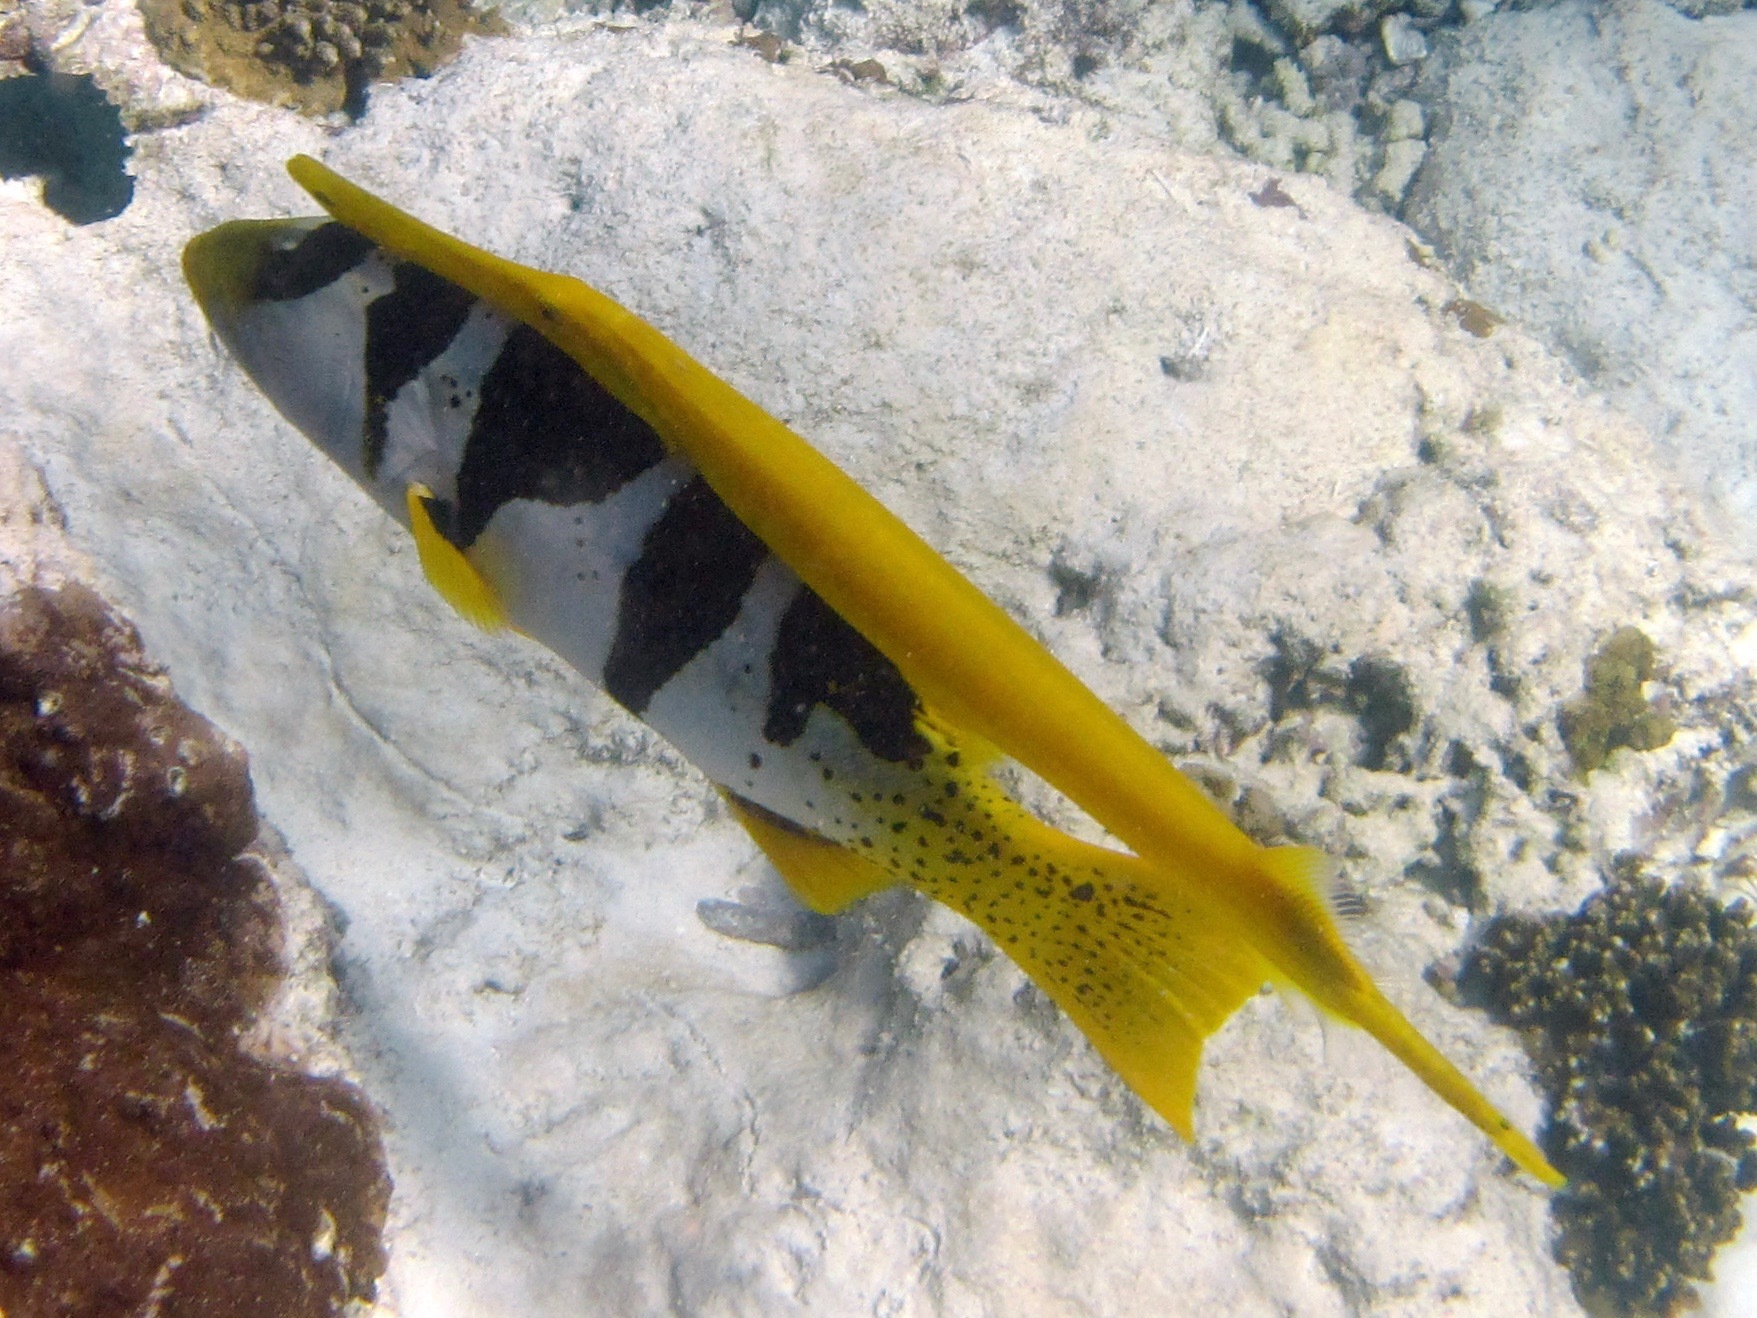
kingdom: Animalia
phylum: Chordata
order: Syngnathiformes
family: Aulostomidae
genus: Aulostomus
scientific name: Aulostomus chinensis
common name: Chinese trumpetfish
